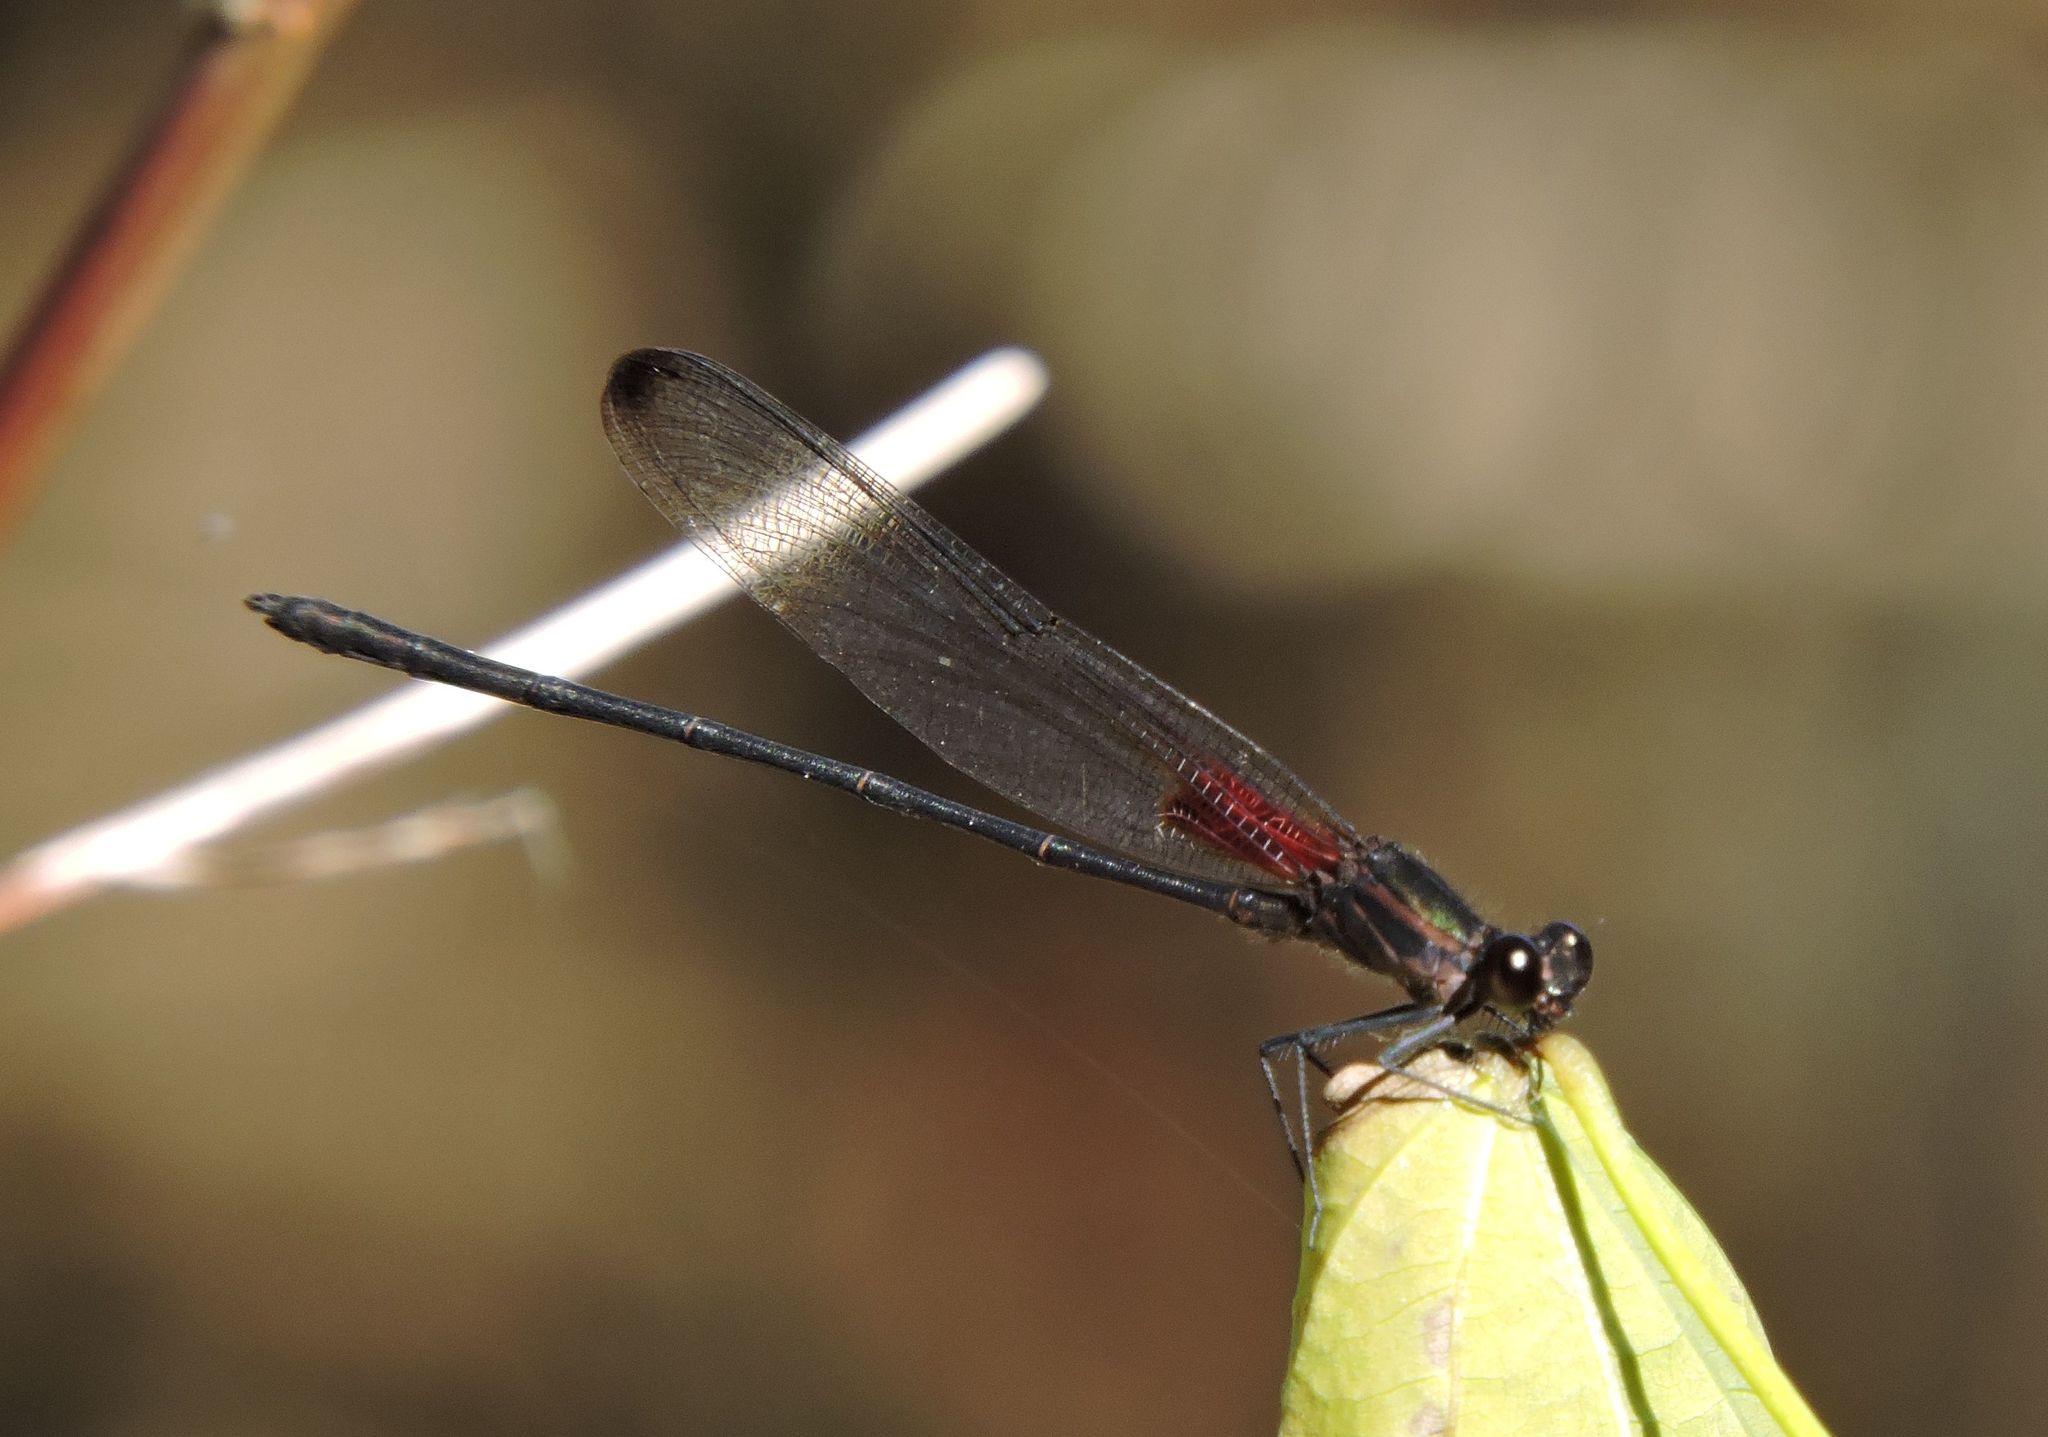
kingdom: Animalia
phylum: Arthropoda
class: Insecta
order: Odonata
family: Calopterygidae
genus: Hetaerina
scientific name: Hetaerina titia
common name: Smoky rubyspot
